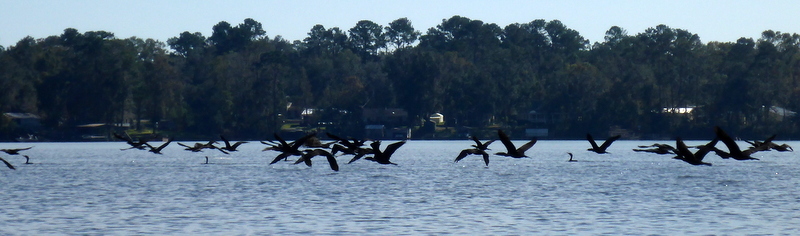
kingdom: Animalia
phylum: Chordata
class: Aves
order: Suliformes
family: Phalacrocoracidae
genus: Phalacrocorax
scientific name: Phalacrocorax auritus
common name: Double-crested cormorant
